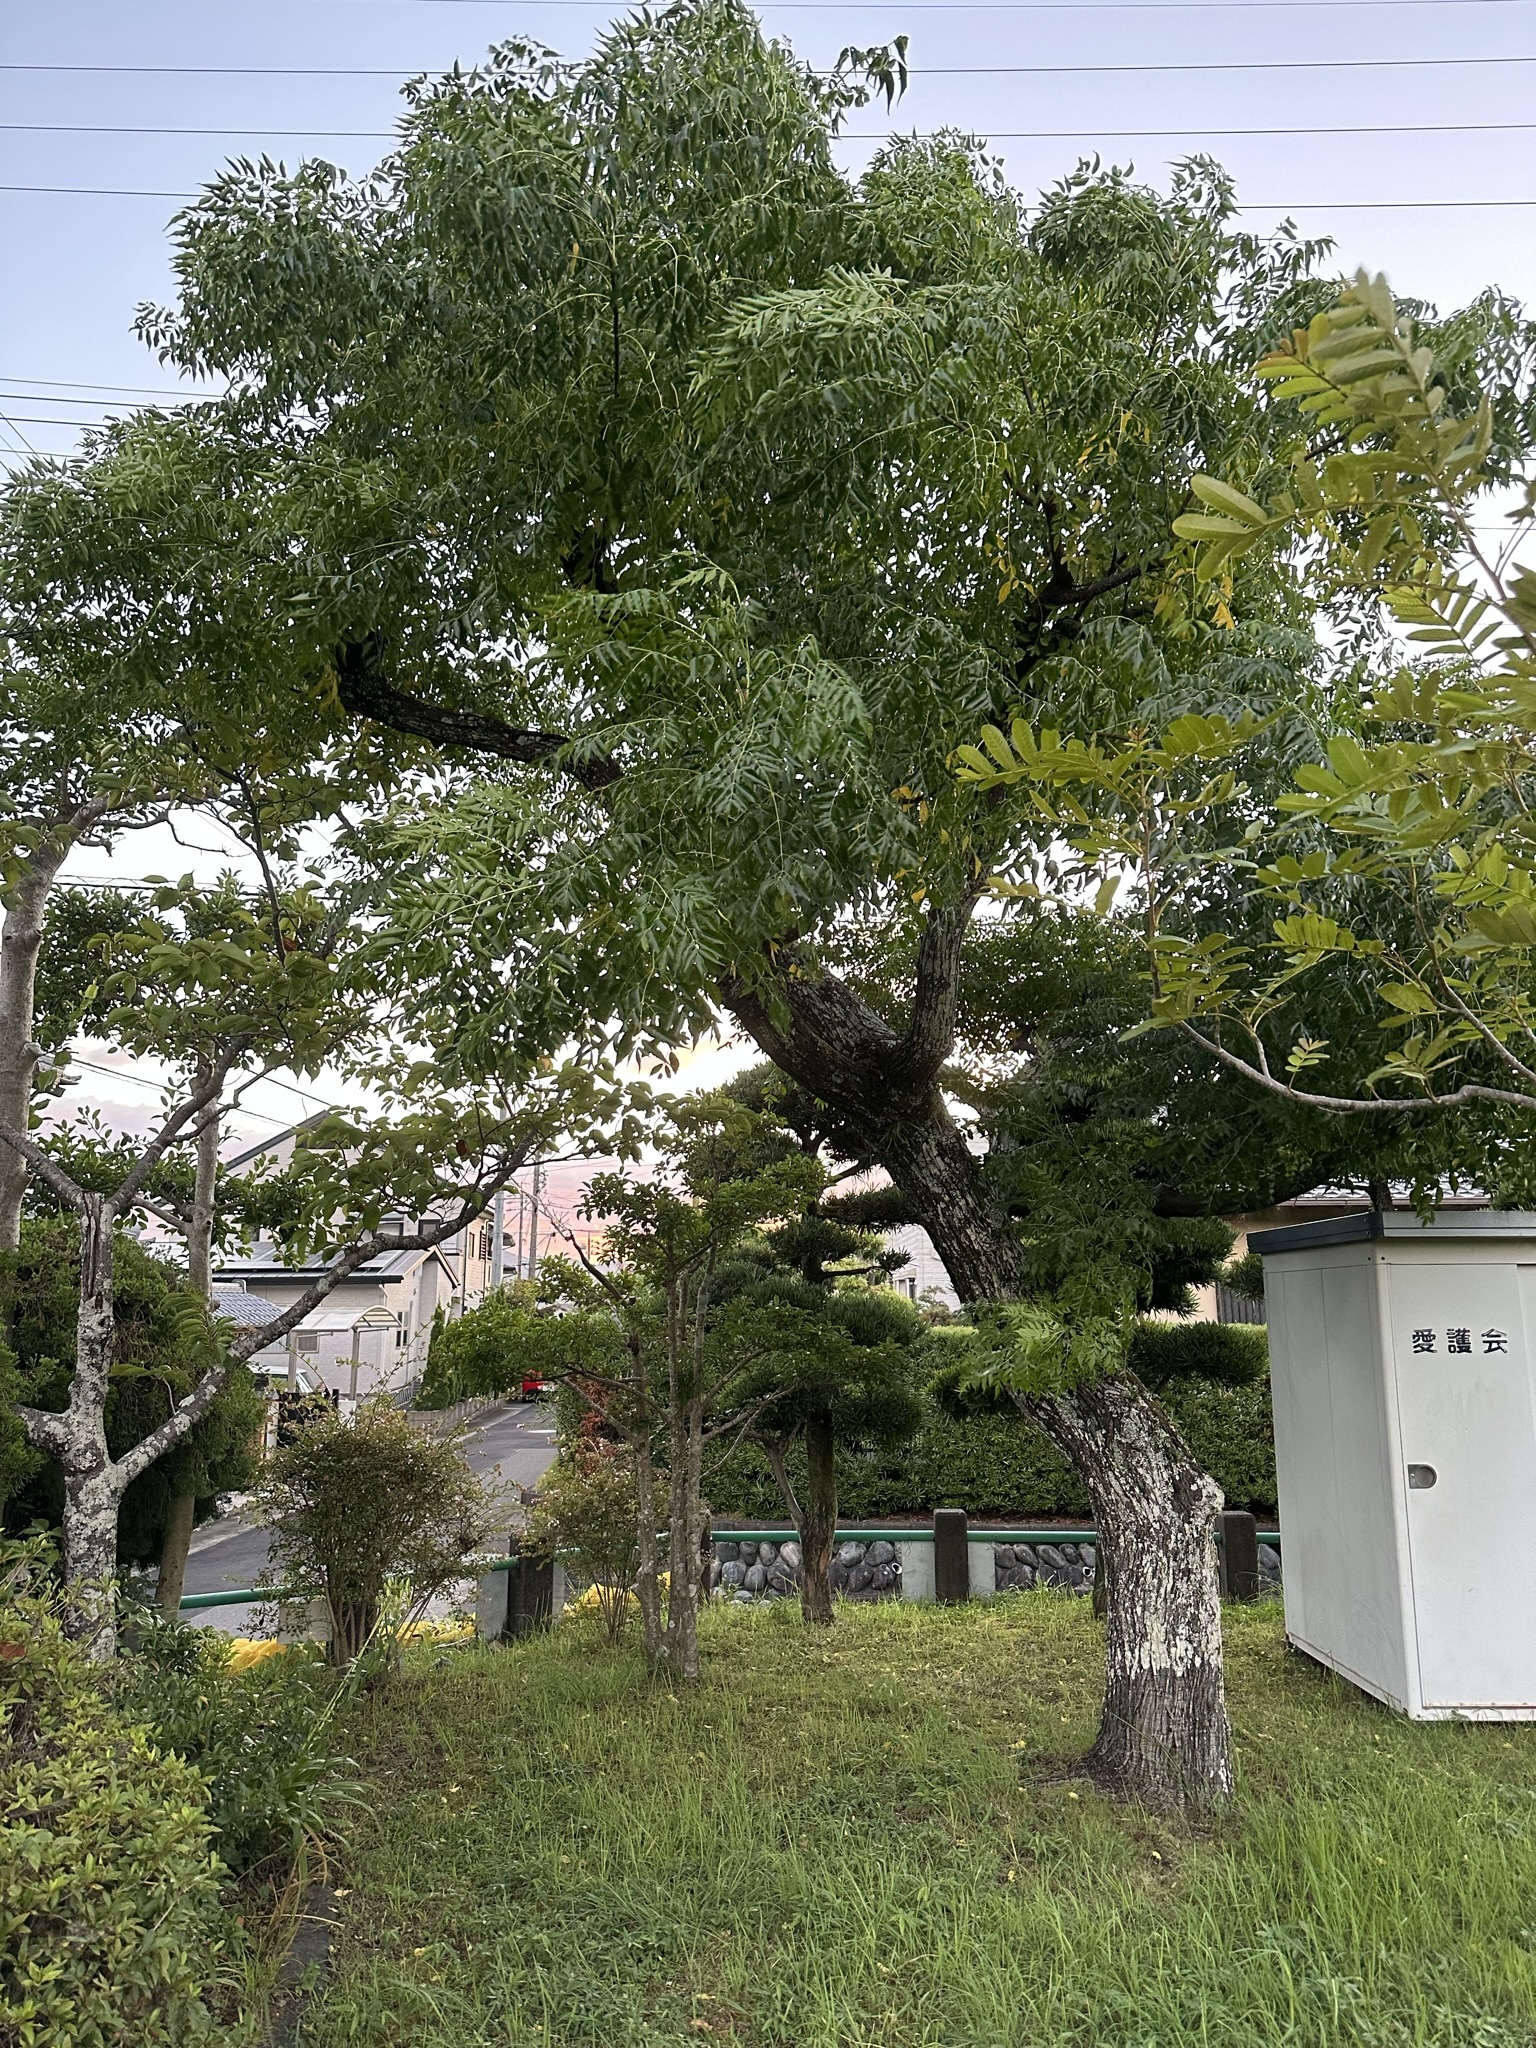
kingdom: Animalia
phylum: Arthropoda
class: Insecta
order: Hemiptera
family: Cicadidae
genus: Meimuna
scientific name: Meimuna opalifera
